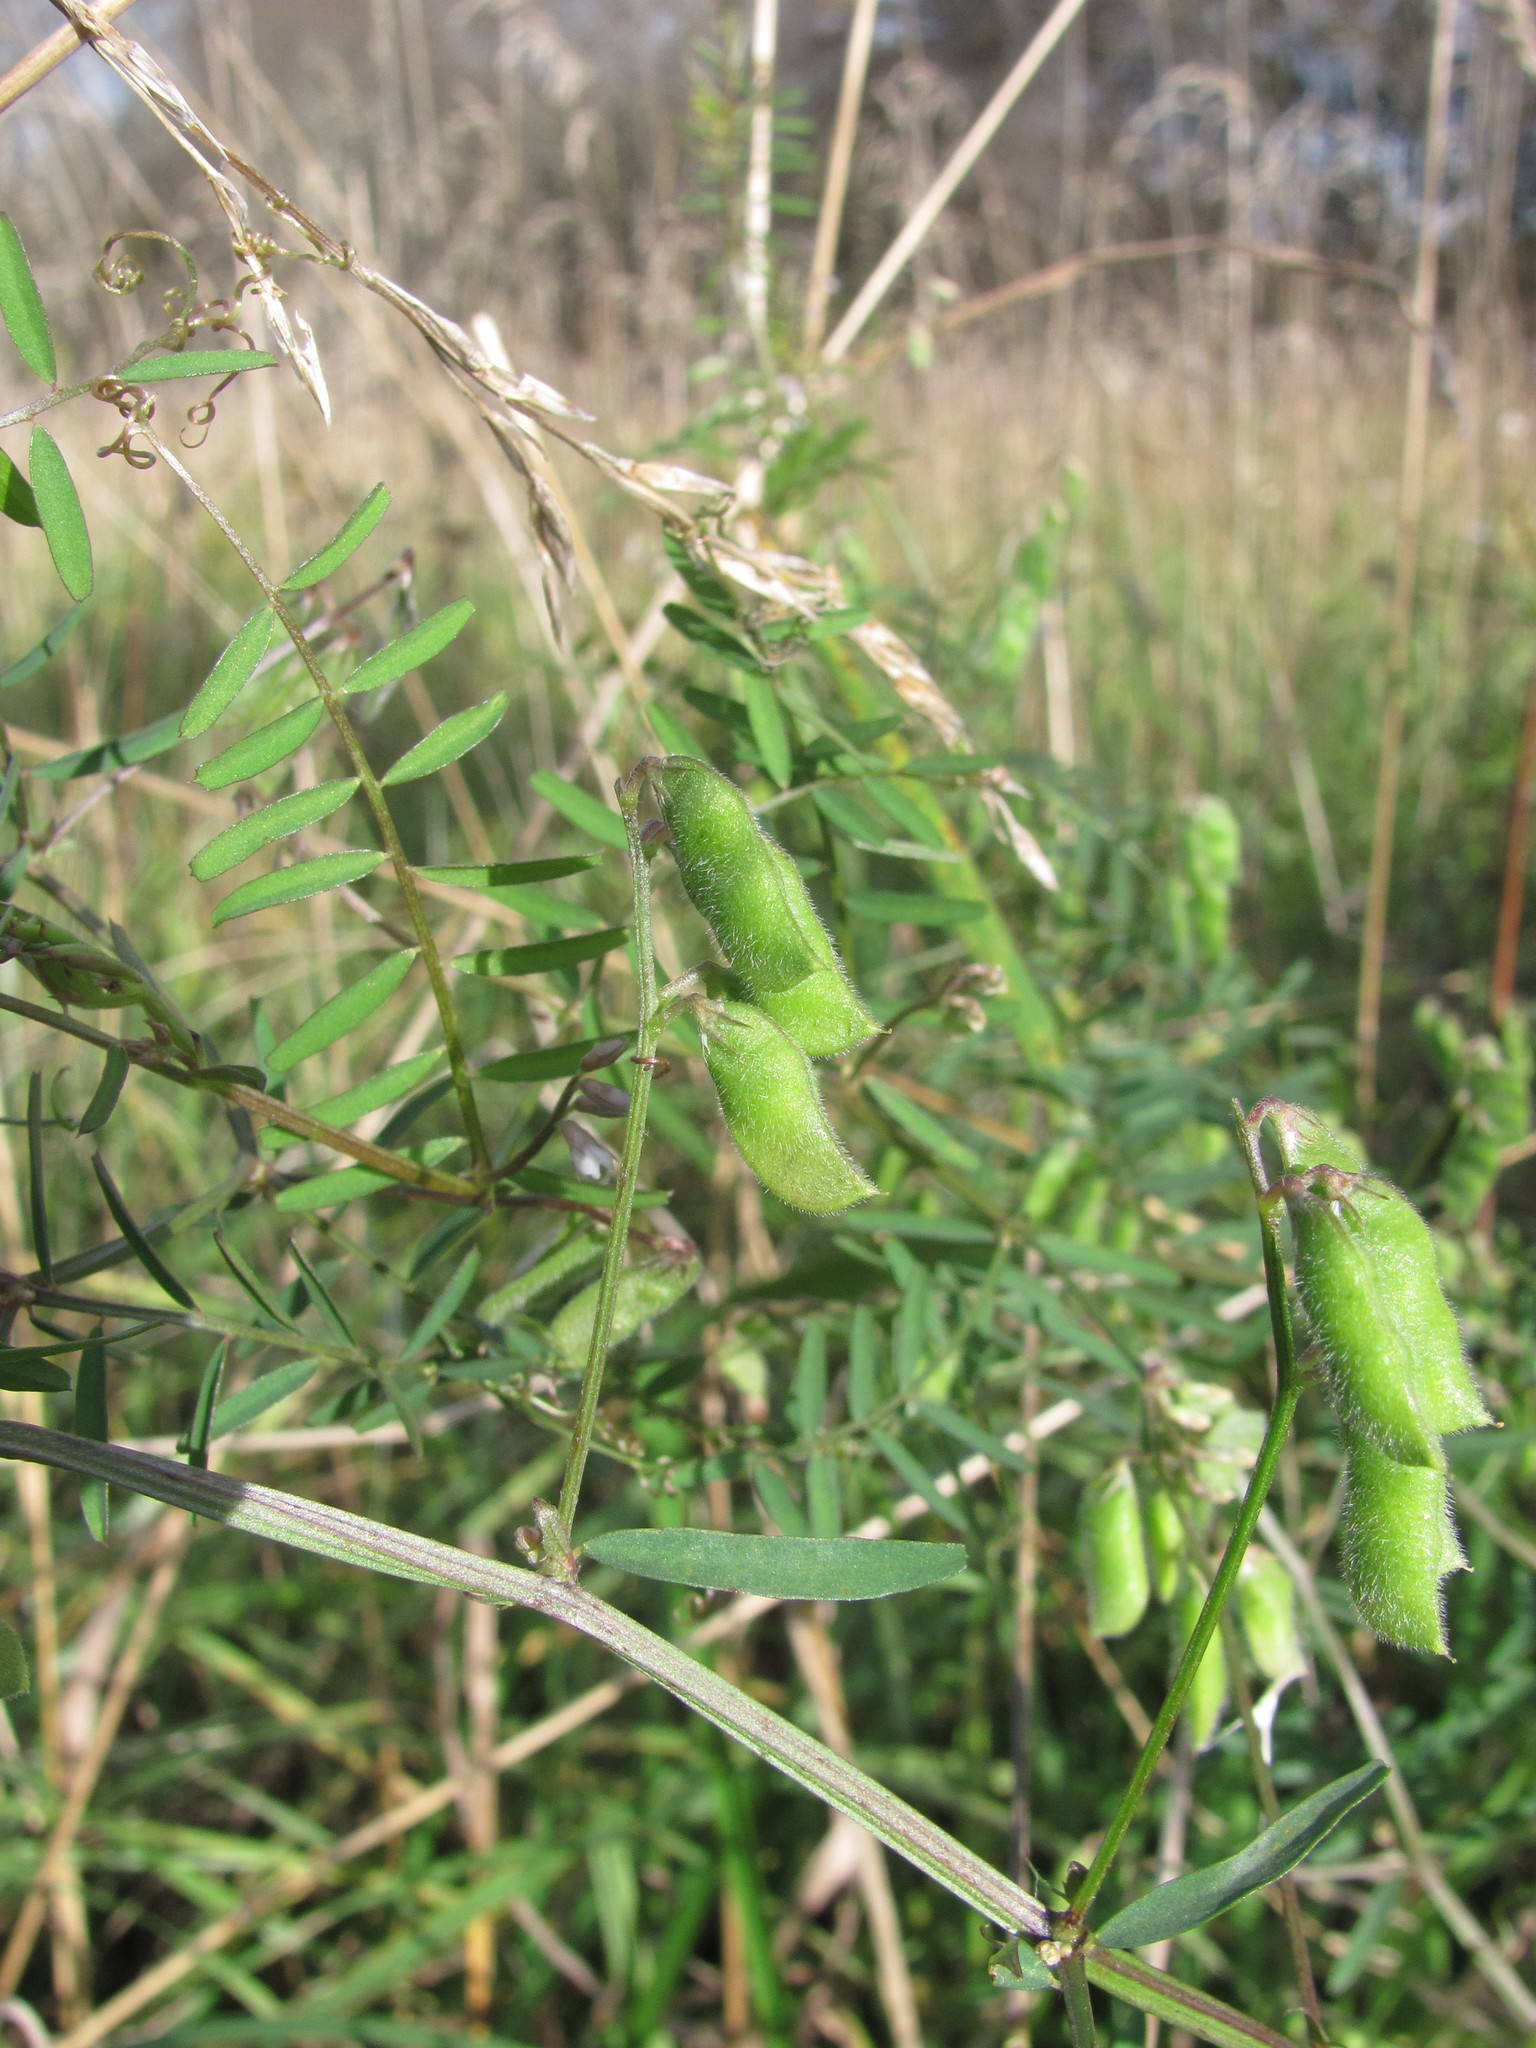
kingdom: Plantae
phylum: Tracheophyta
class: Magnoliopsida
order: Fabales
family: Fabaceae
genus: Vicia
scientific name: Vicia hirsuta
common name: Tiny vetch
